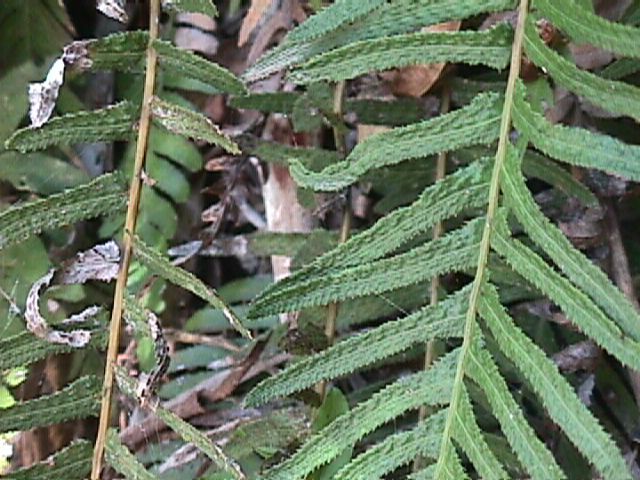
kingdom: Plantae
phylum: Tracheophyta
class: Polypodiopsida
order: Polypodiales
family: Blechnaceae
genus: Doodia
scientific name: Doodia australis
